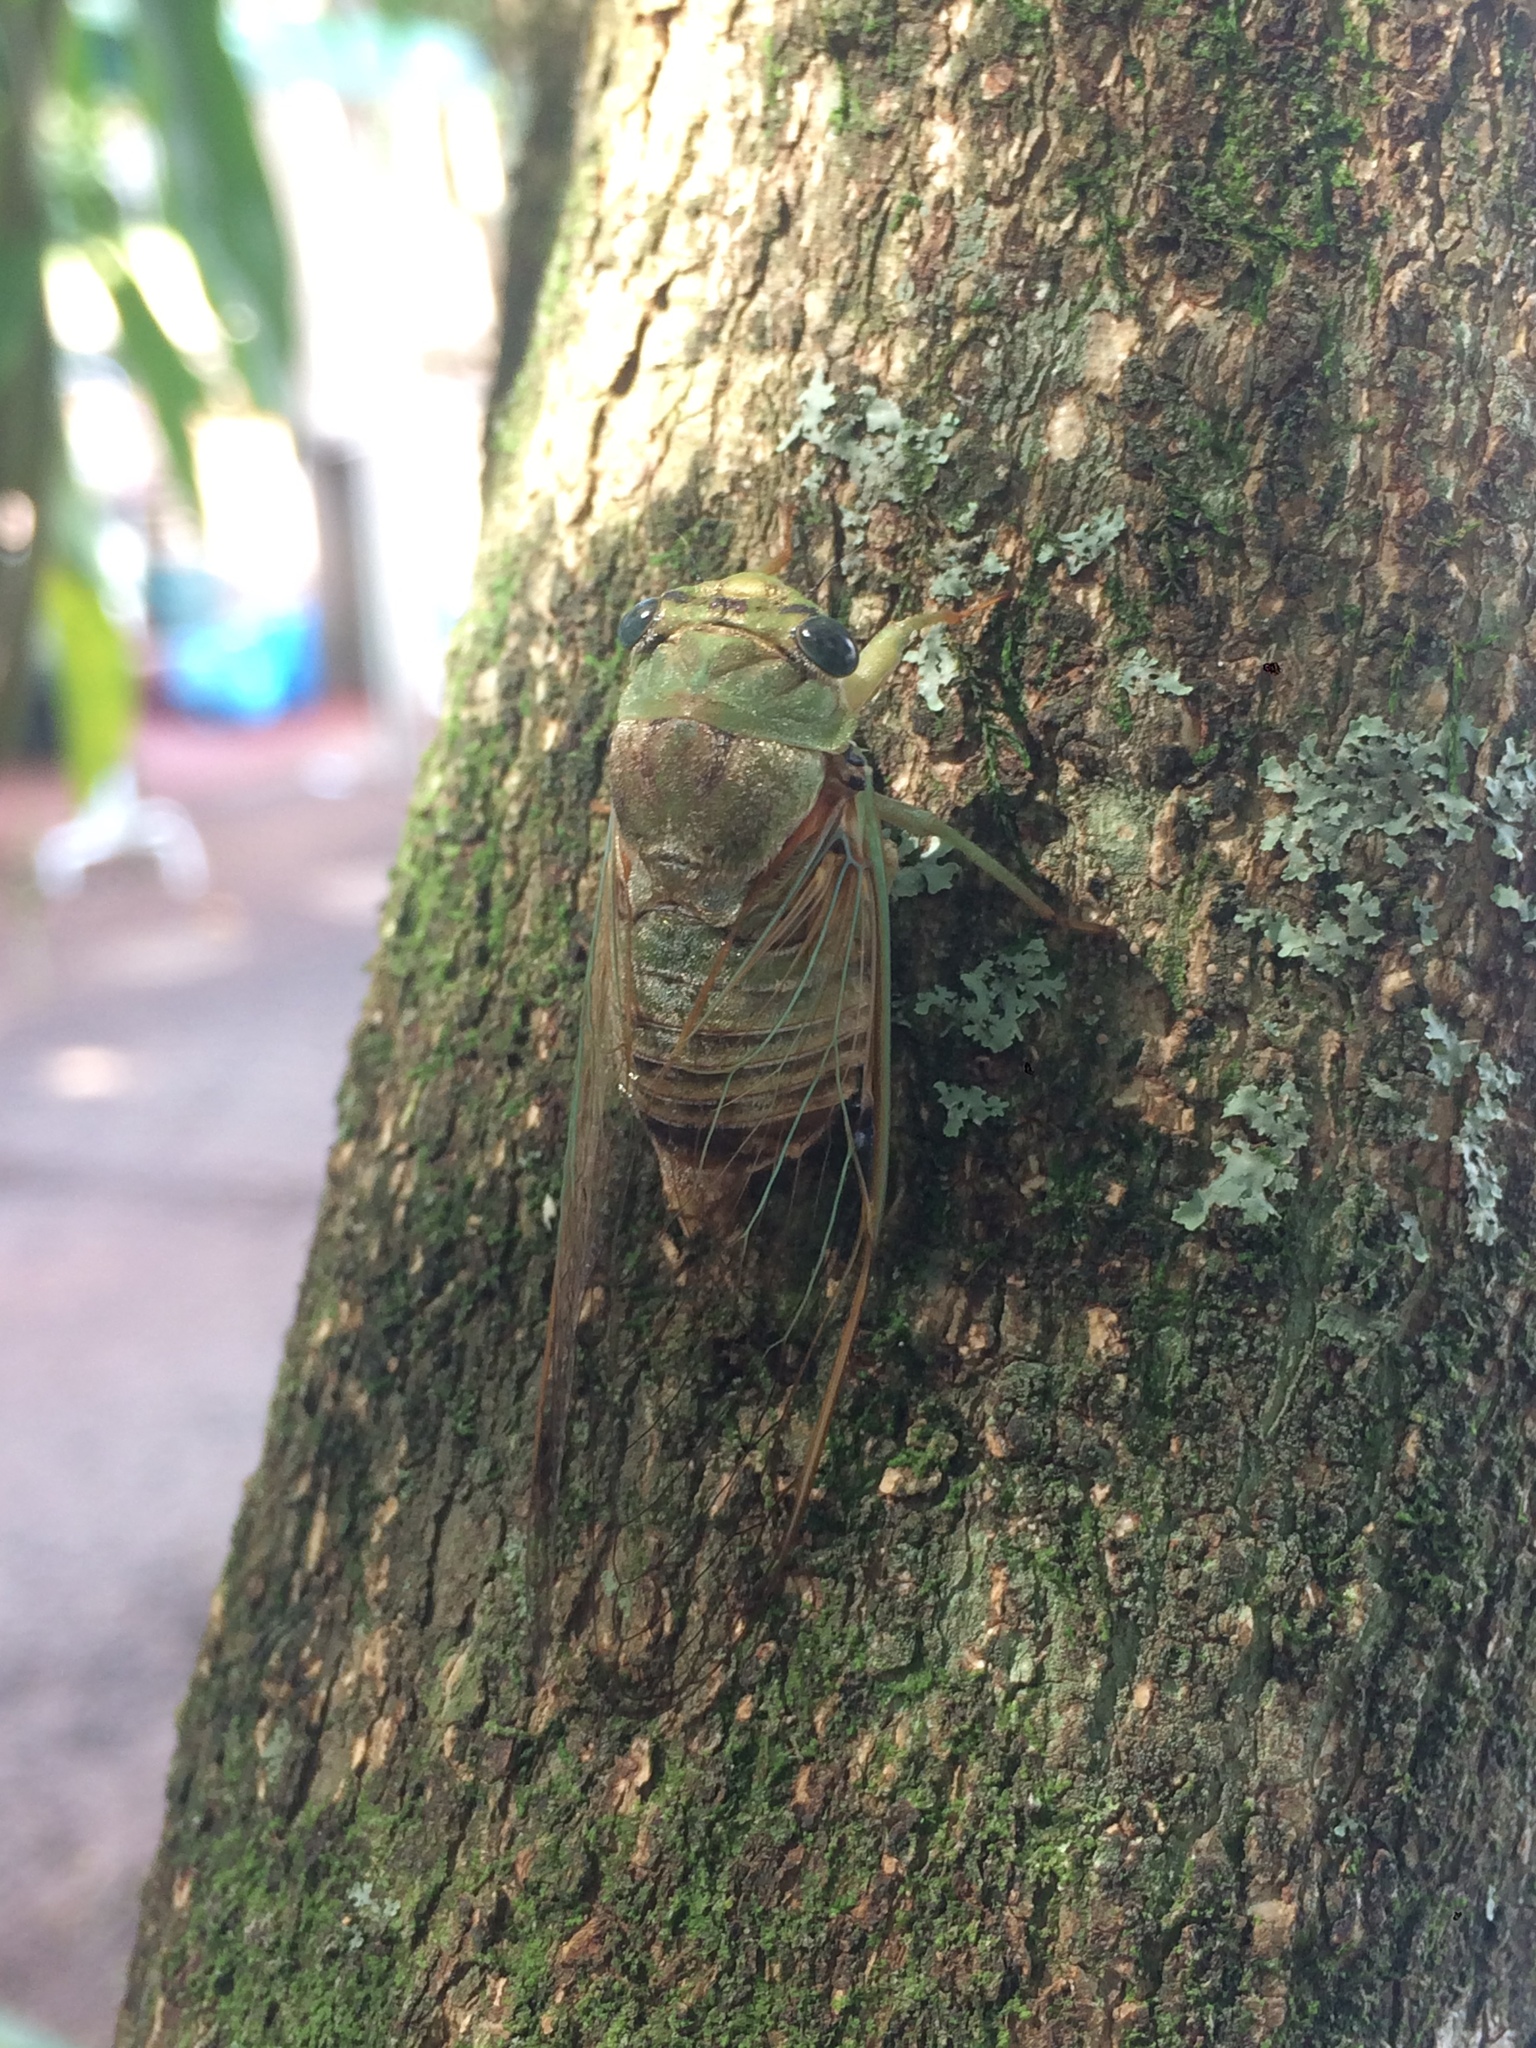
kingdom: Animalia
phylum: Arthropoda
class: Insecta
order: Hemiptera
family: Cicadidae
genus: Dorisiana
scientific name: Dorisiana noriegai
